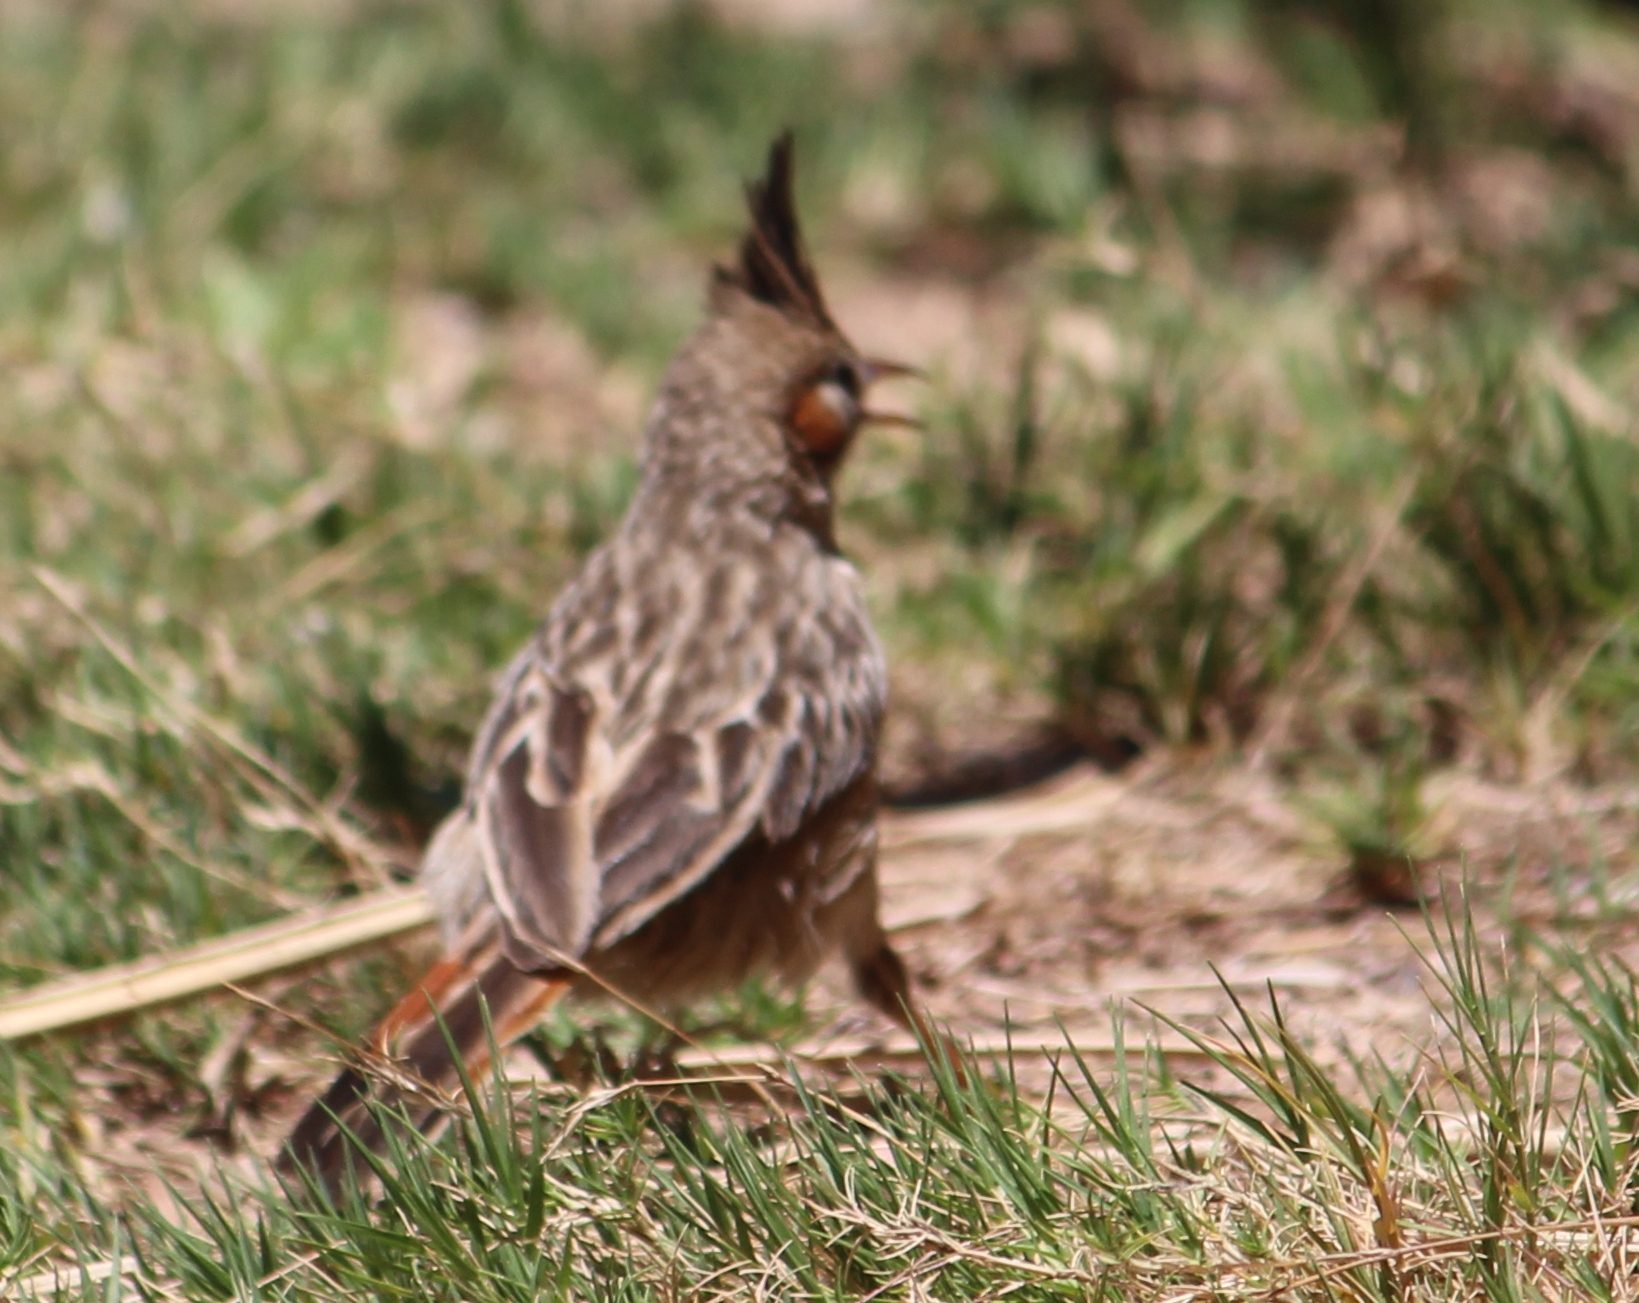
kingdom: Animalia
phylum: Chordata
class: Aves
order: Passeriformes
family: Furnariidae
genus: Coryphistera
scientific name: Coryphistera alaudina
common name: Lark-like brushrunner
